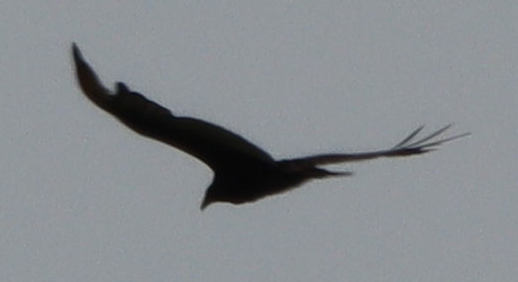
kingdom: Animalia
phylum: Chordata
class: Aves
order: Accipitriformes
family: Cathartidae
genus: Cathartes
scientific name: Cathartes aura
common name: Turkey vulture
